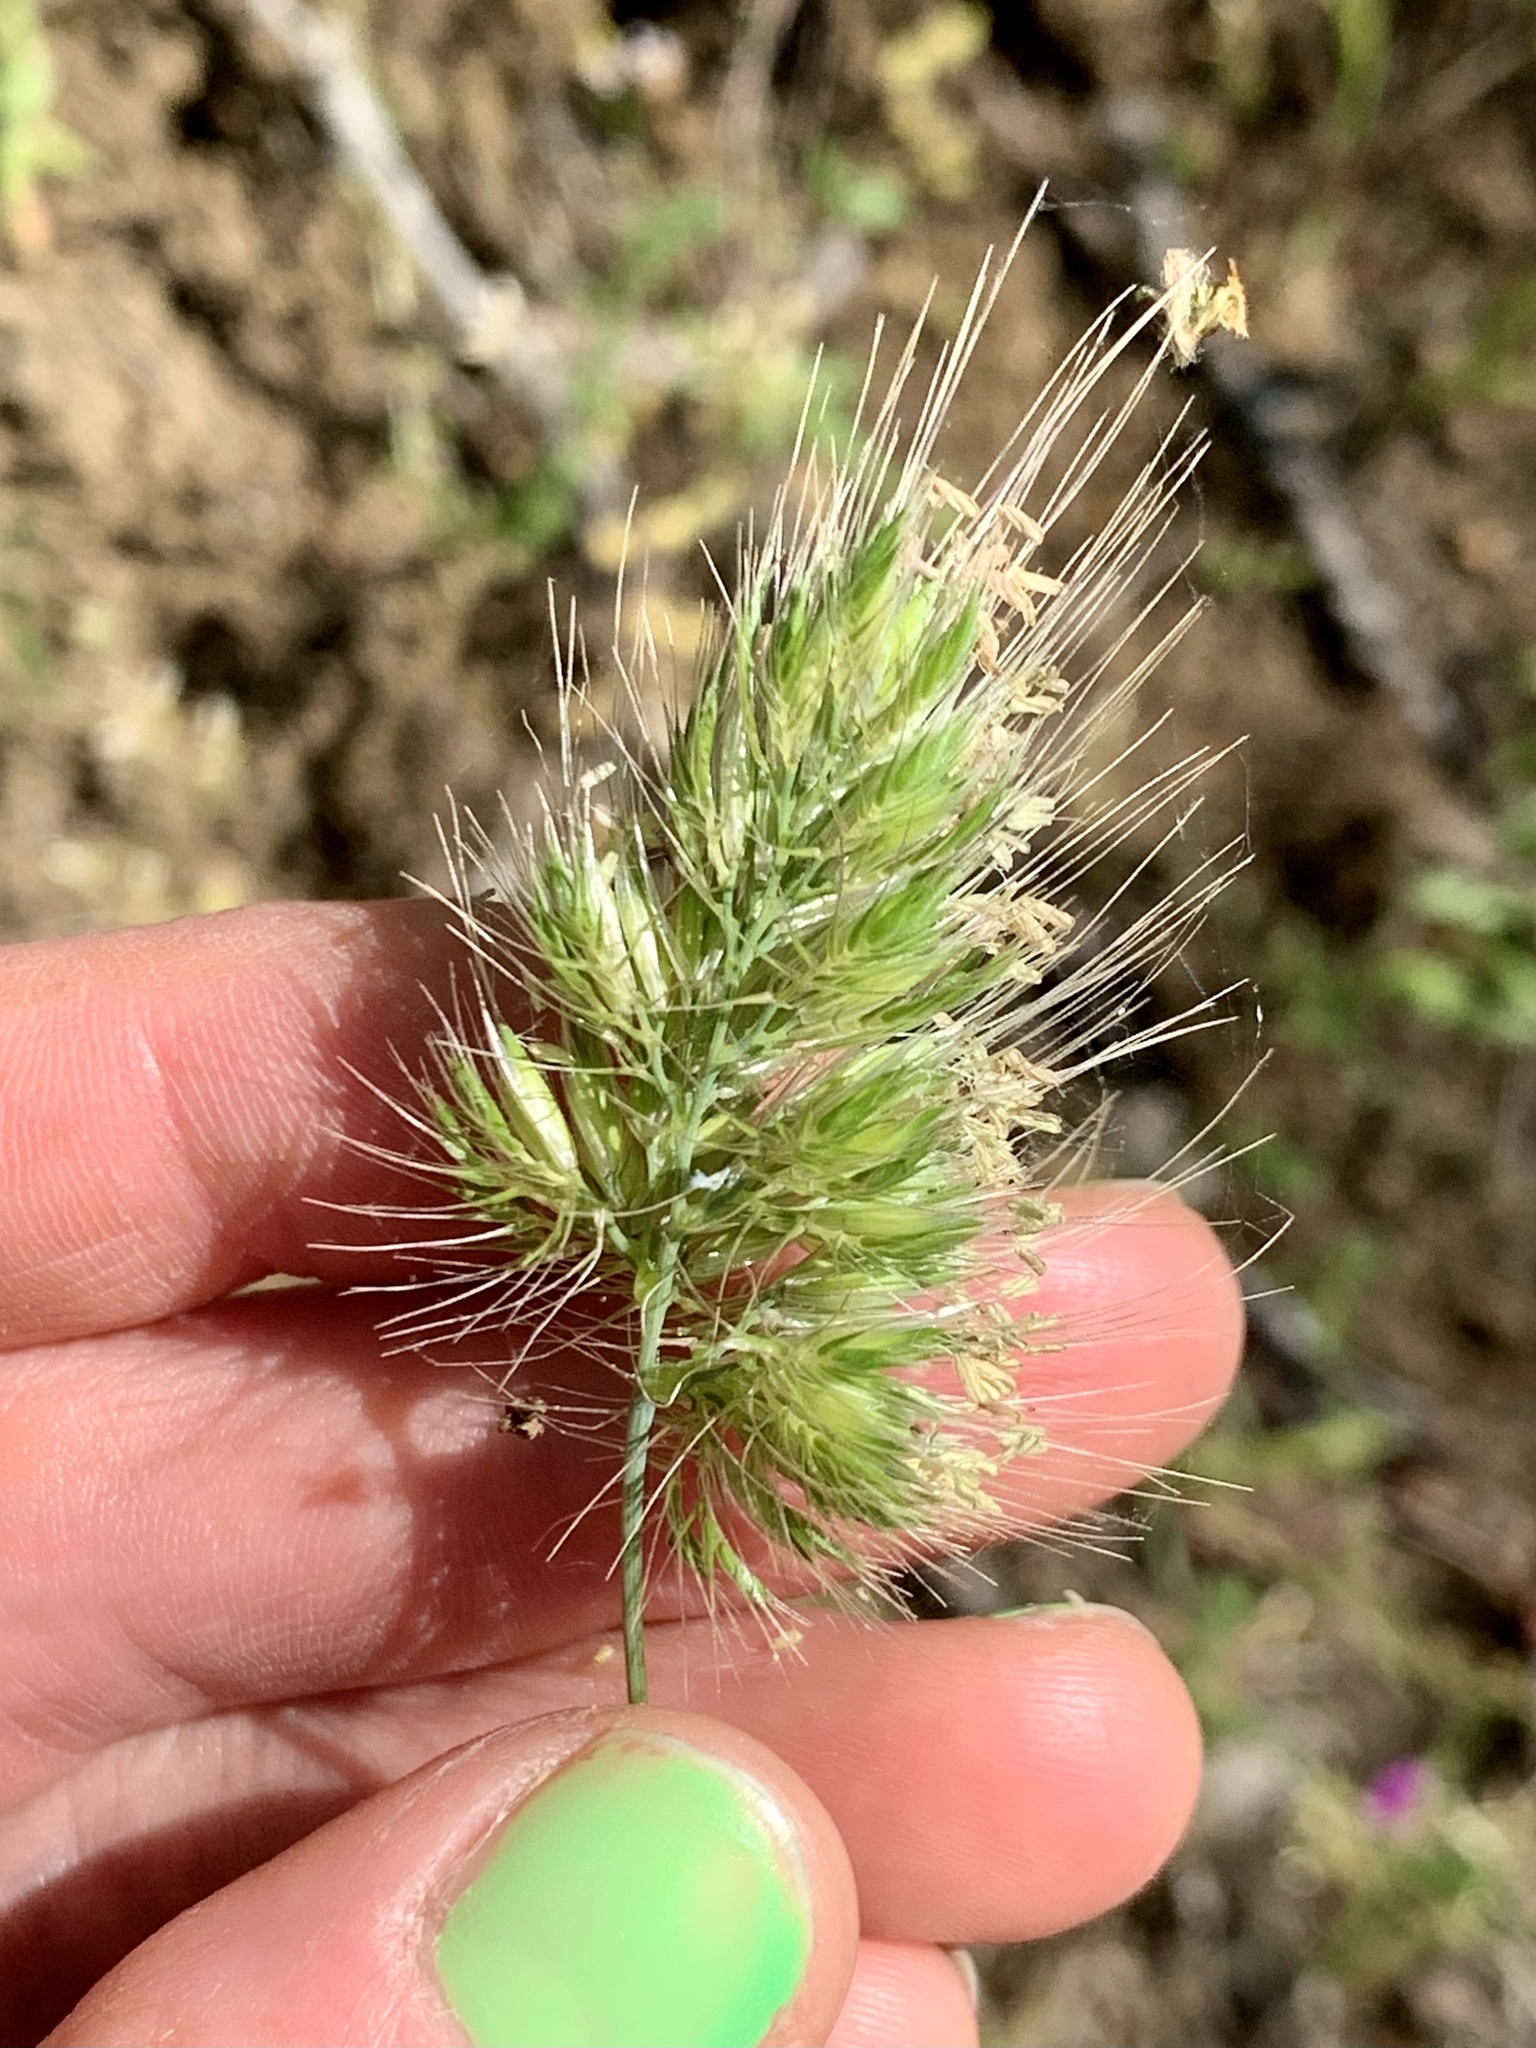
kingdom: Plantae
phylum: Tracheophyta
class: Liliopsida
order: Poales
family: Poaceae
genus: Cynosurus
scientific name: Cynosurus echinatus
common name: Rough dog's-tail
